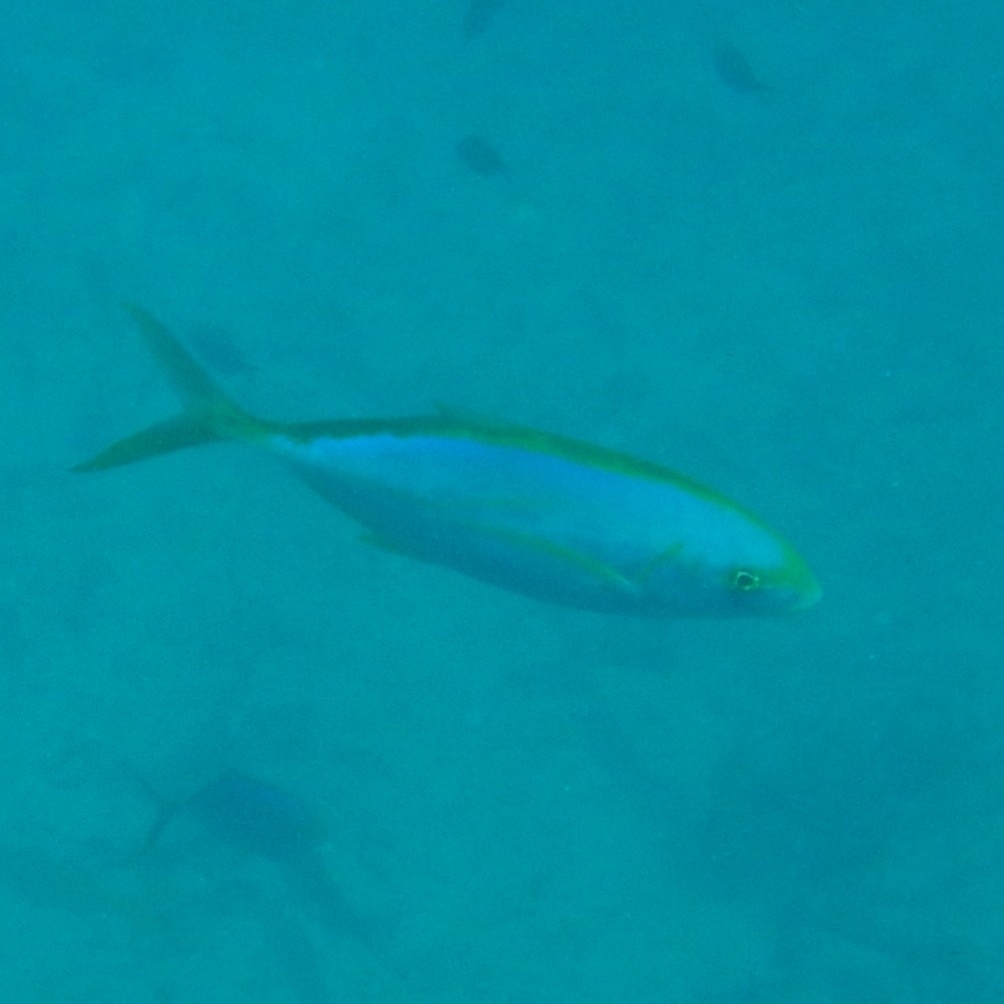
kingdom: Animalia
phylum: Chordata
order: Perciformes
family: Carangidae
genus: Carangoides
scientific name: Carangoides bartholomaei
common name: Yellow jack
